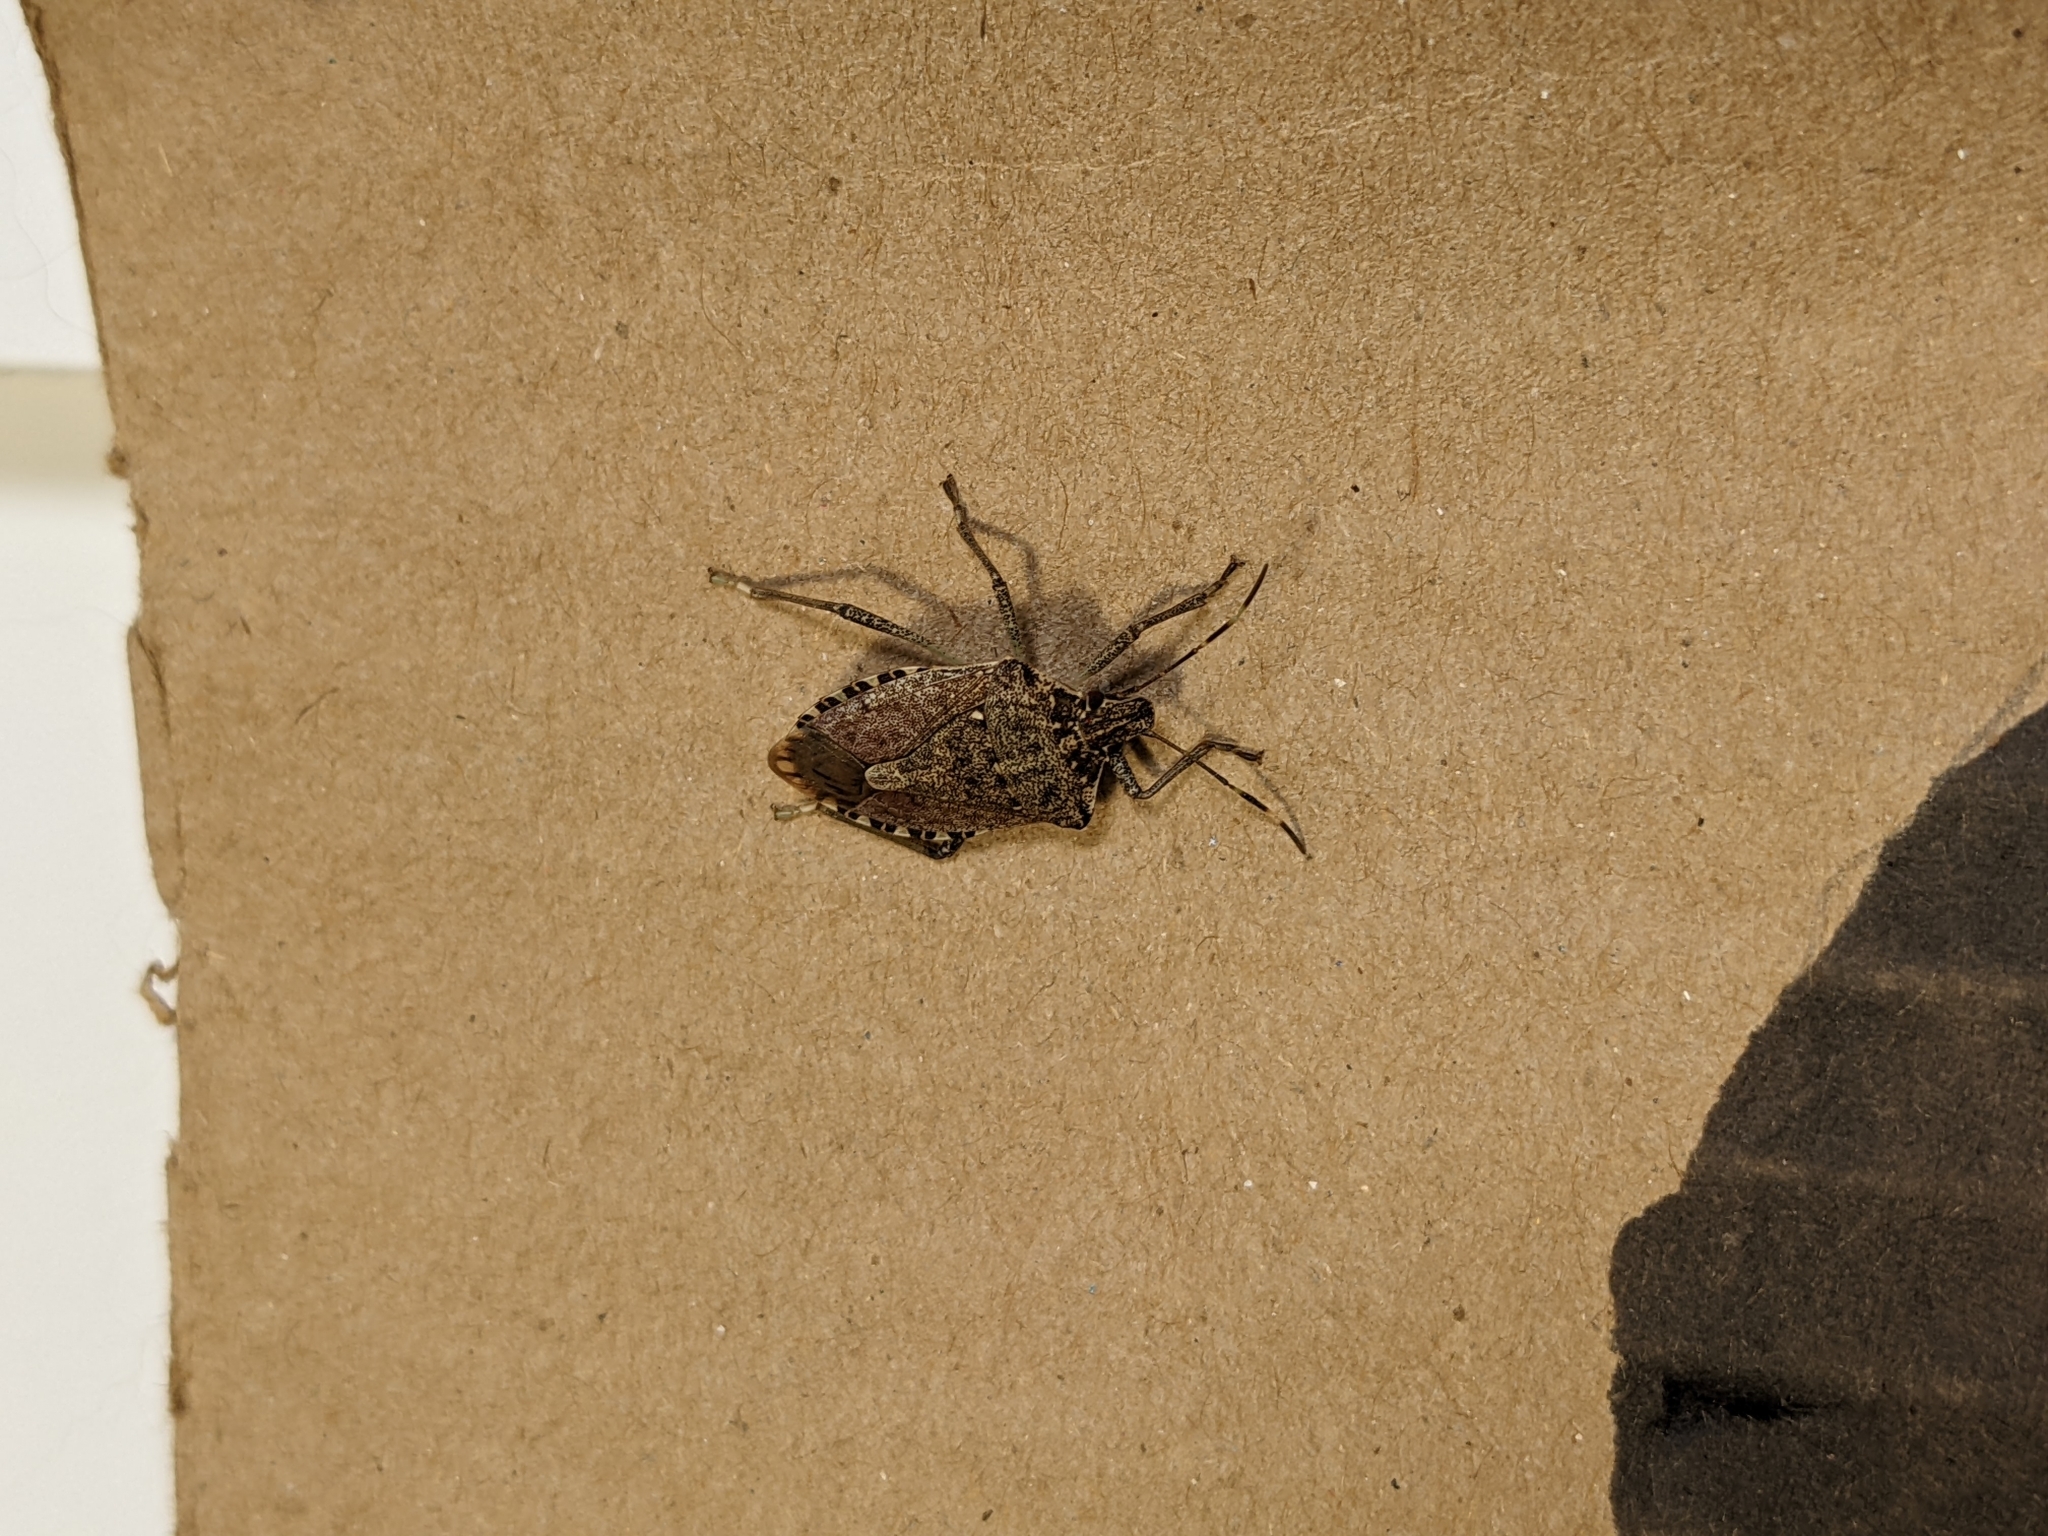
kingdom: Animalia
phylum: Arthropoda
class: Insecta
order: Hemiptera
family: Pentatomidae
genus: Halyomorpha
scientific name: Halyomorpha halys
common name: Brown marmorated stink bug
